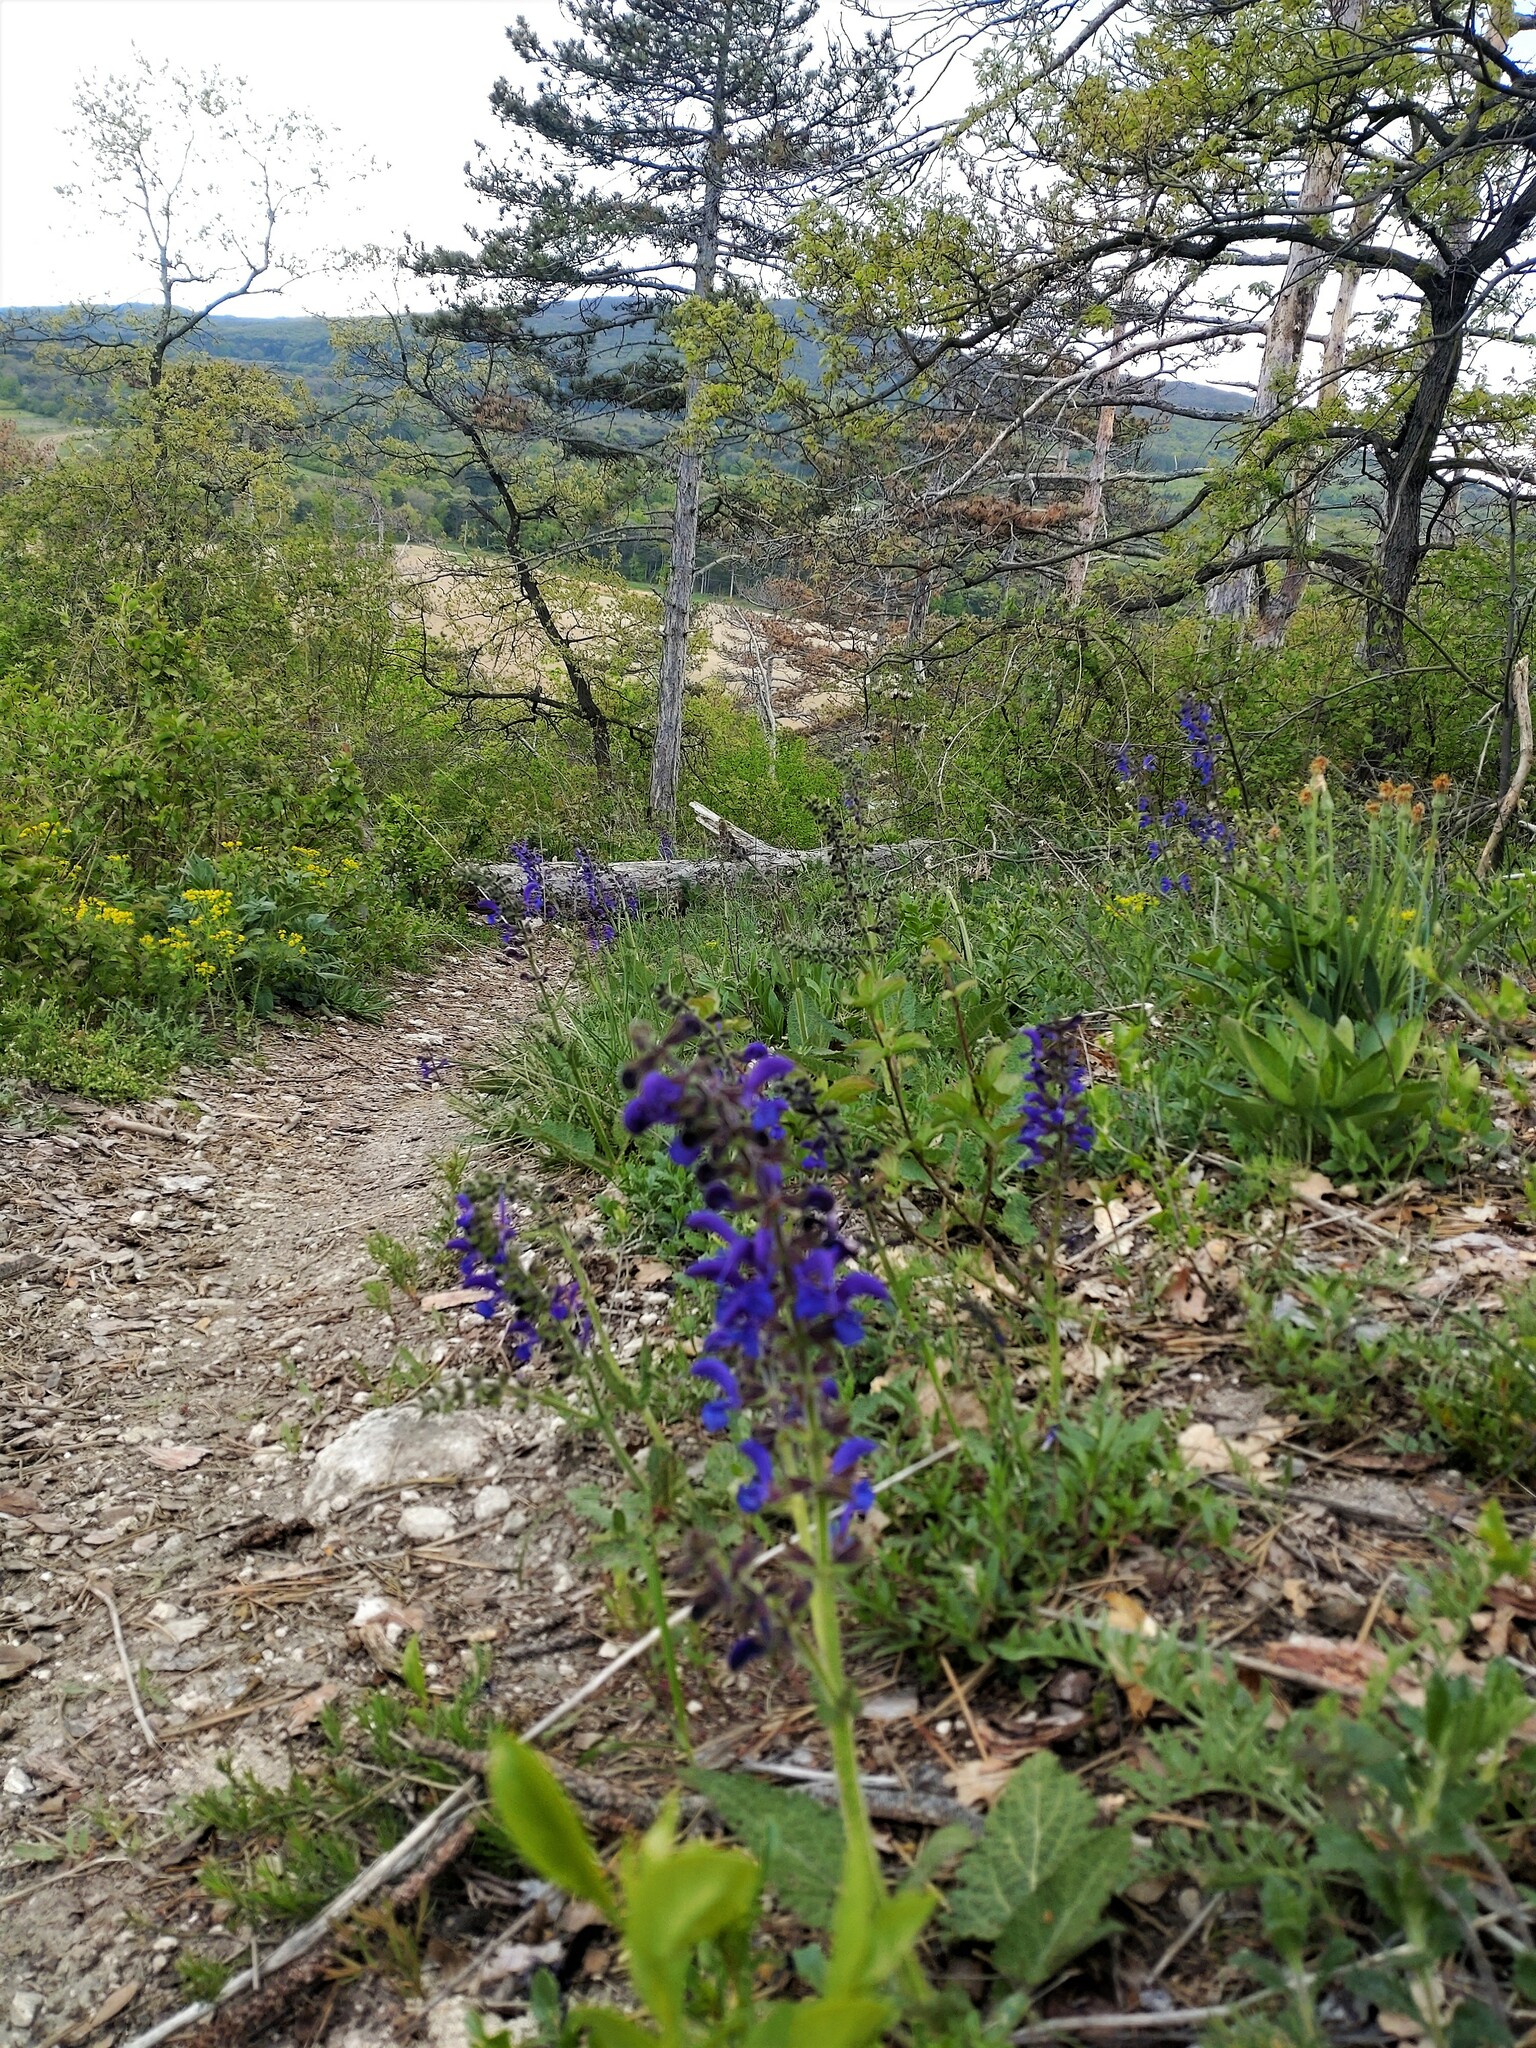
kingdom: Plantae
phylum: Tracheophyta
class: Magnoliopsida
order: Lamiales
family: Lamiaceae
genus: Salvia
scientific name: Salvia pratensis
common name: Meadow sage
